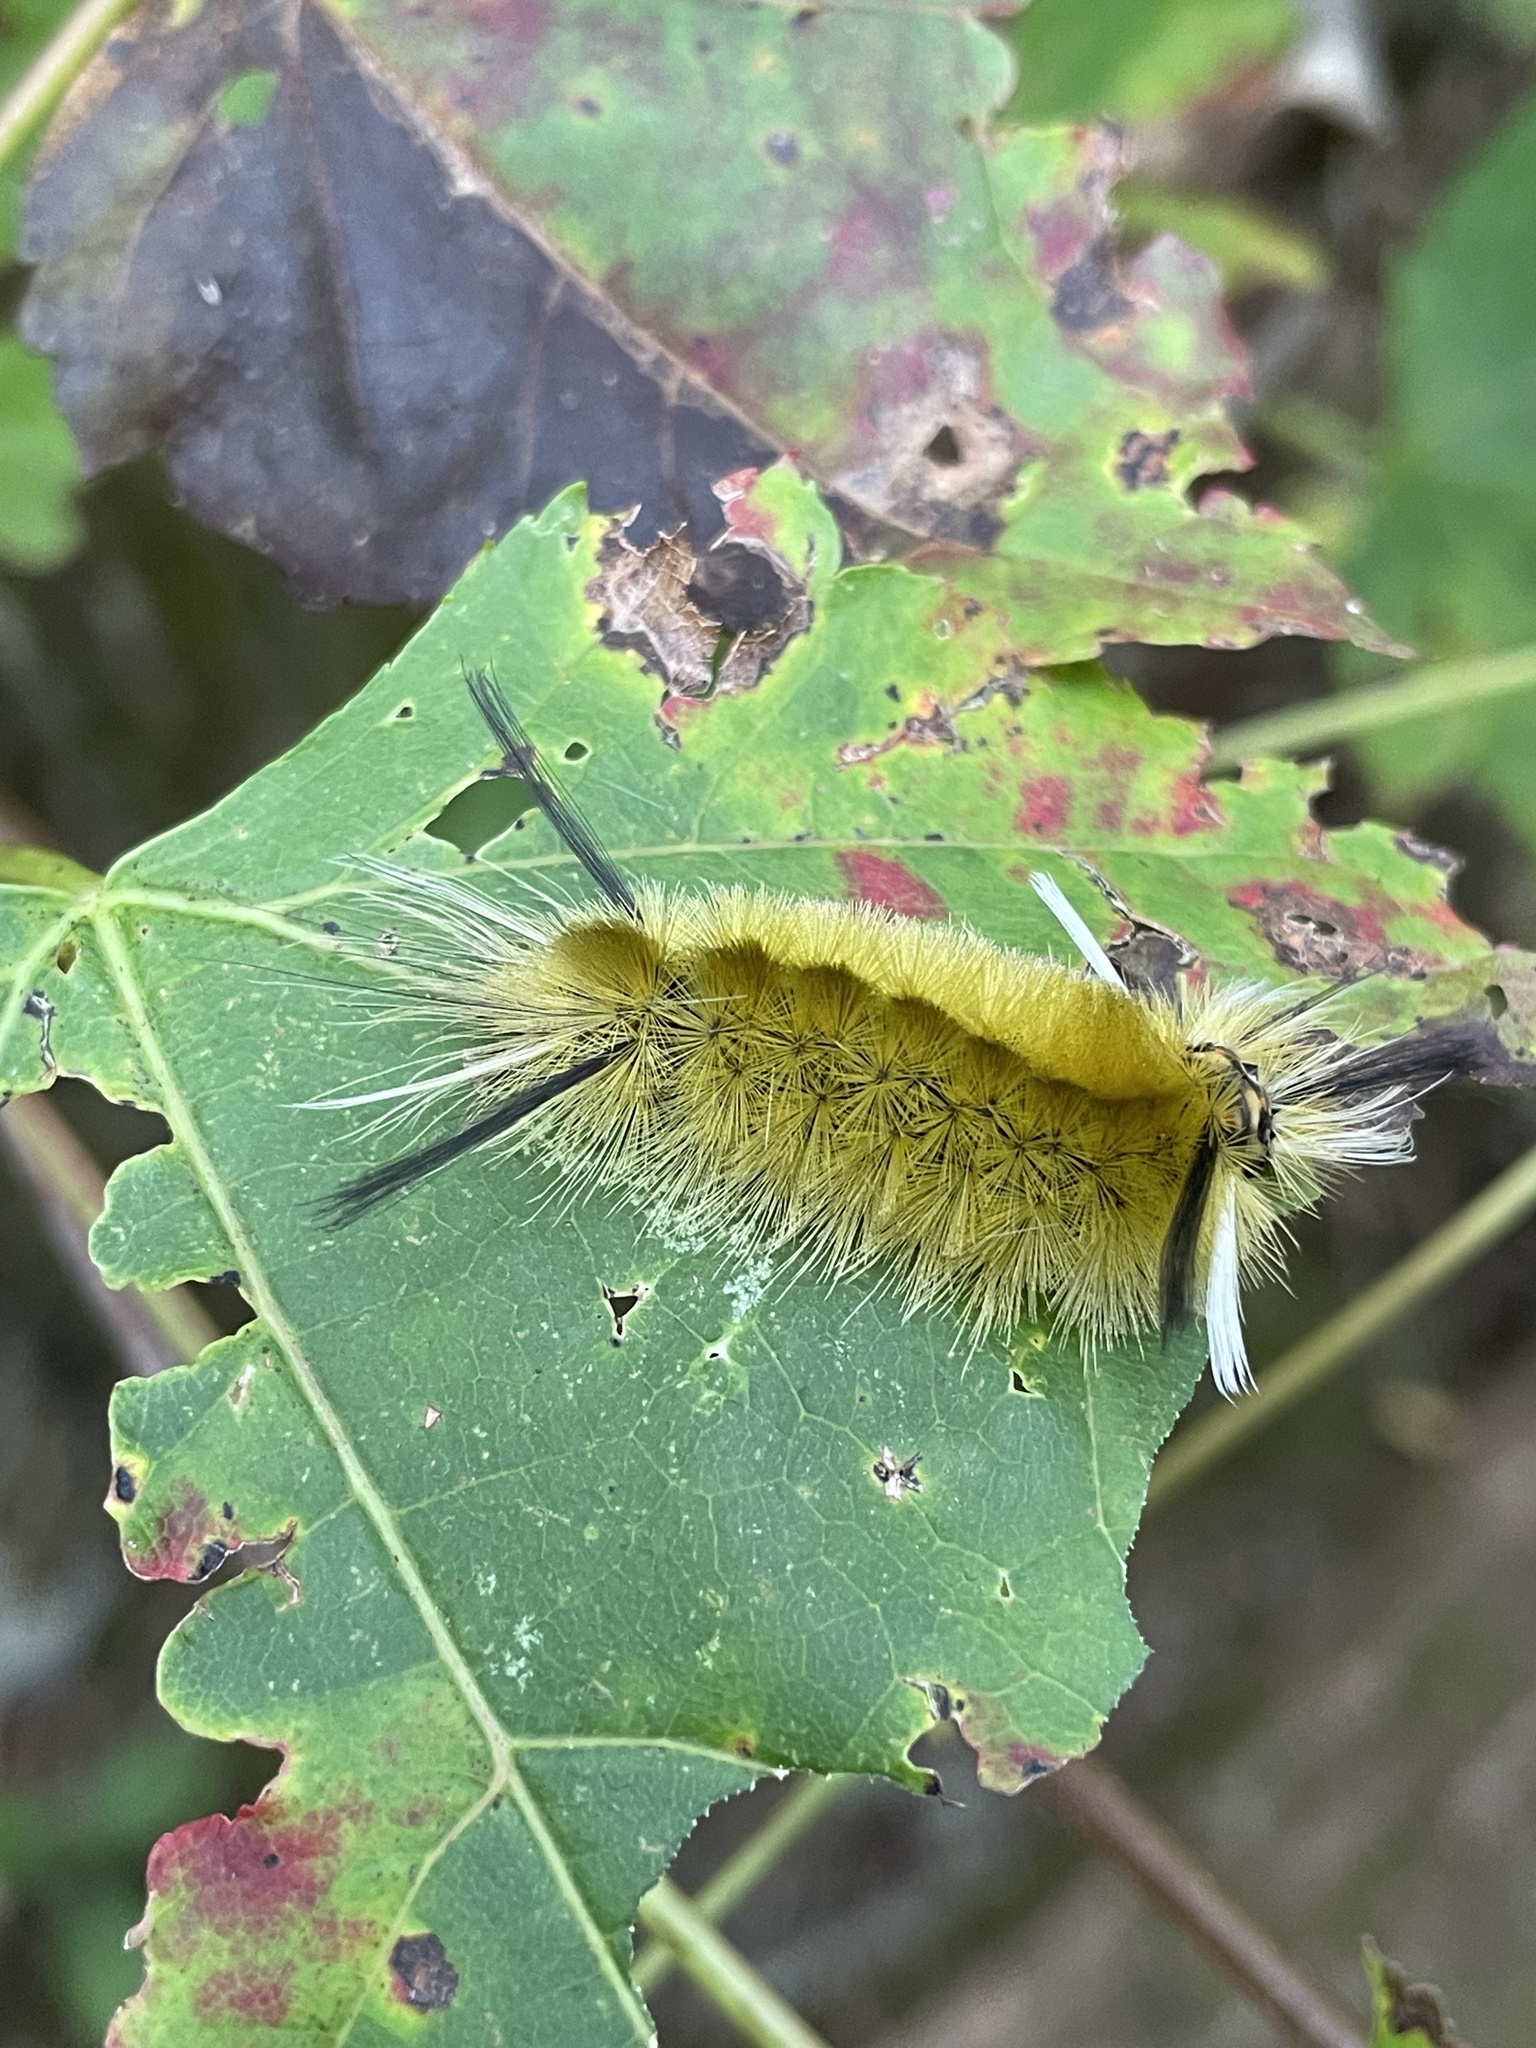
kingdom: Animalia
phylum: Arthropoda
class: Insecta
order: Lepidoptera
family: Erebidae
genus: Halysidota
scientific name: Halysidota tessellaris
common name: Banded tussock moth
